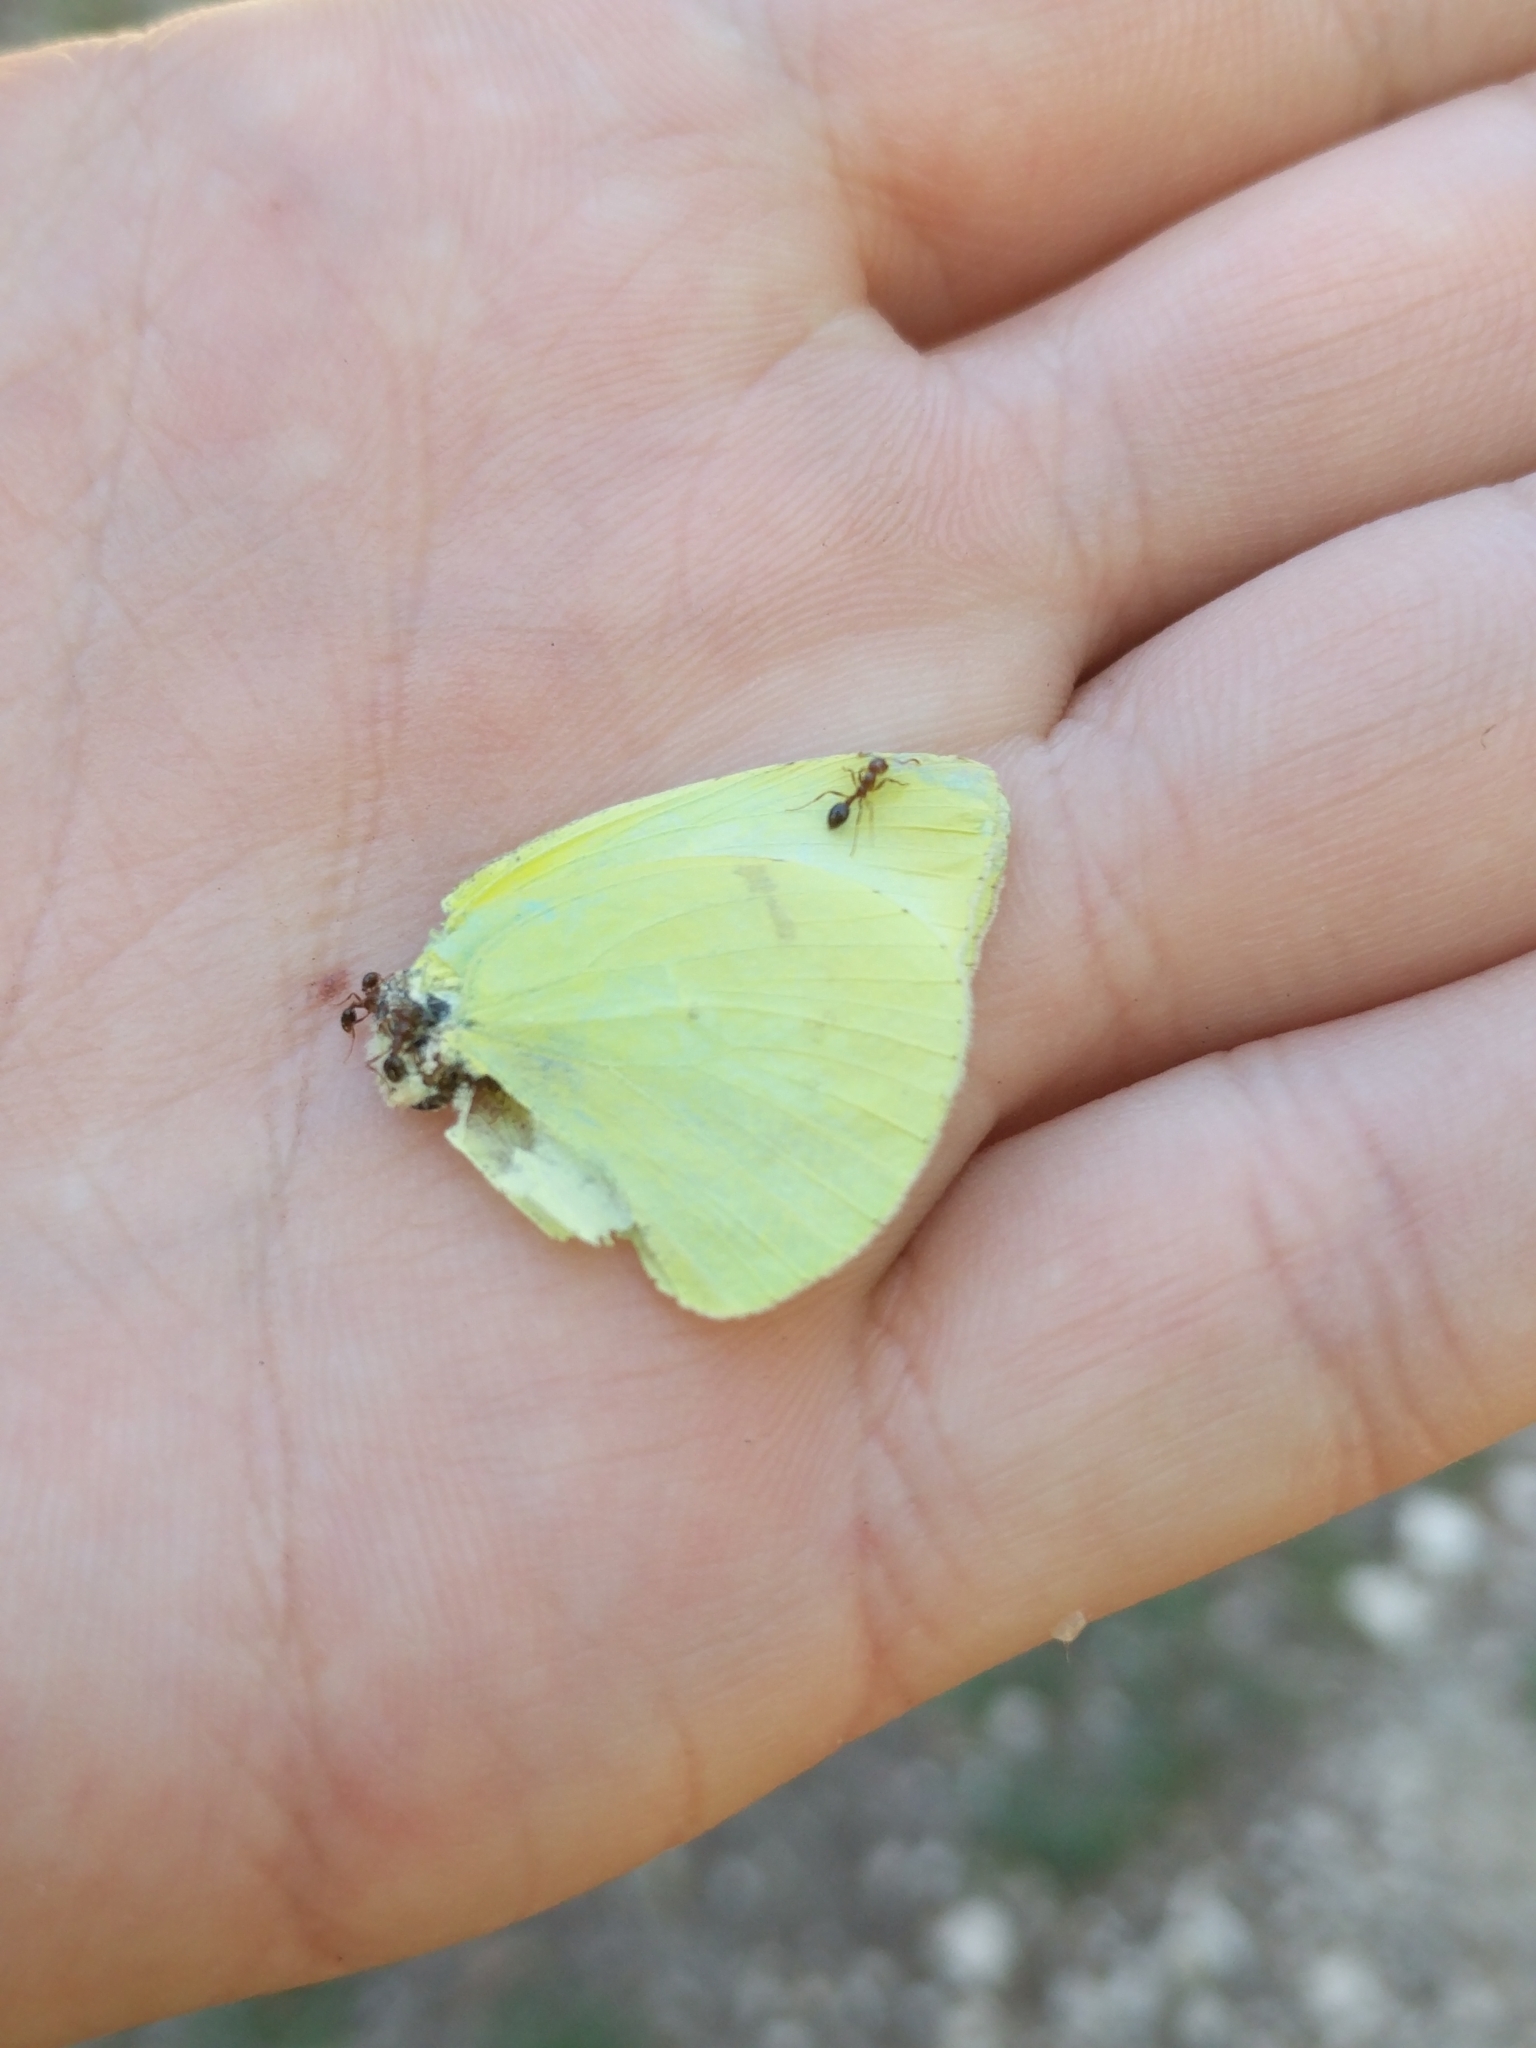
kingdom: Animalia
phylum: Arthropoda
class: Insecta
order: Lepidoptera
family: Pieridae
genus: Kricogonia
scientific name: Kricogonia lyside
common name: Guayacan sulphur,
